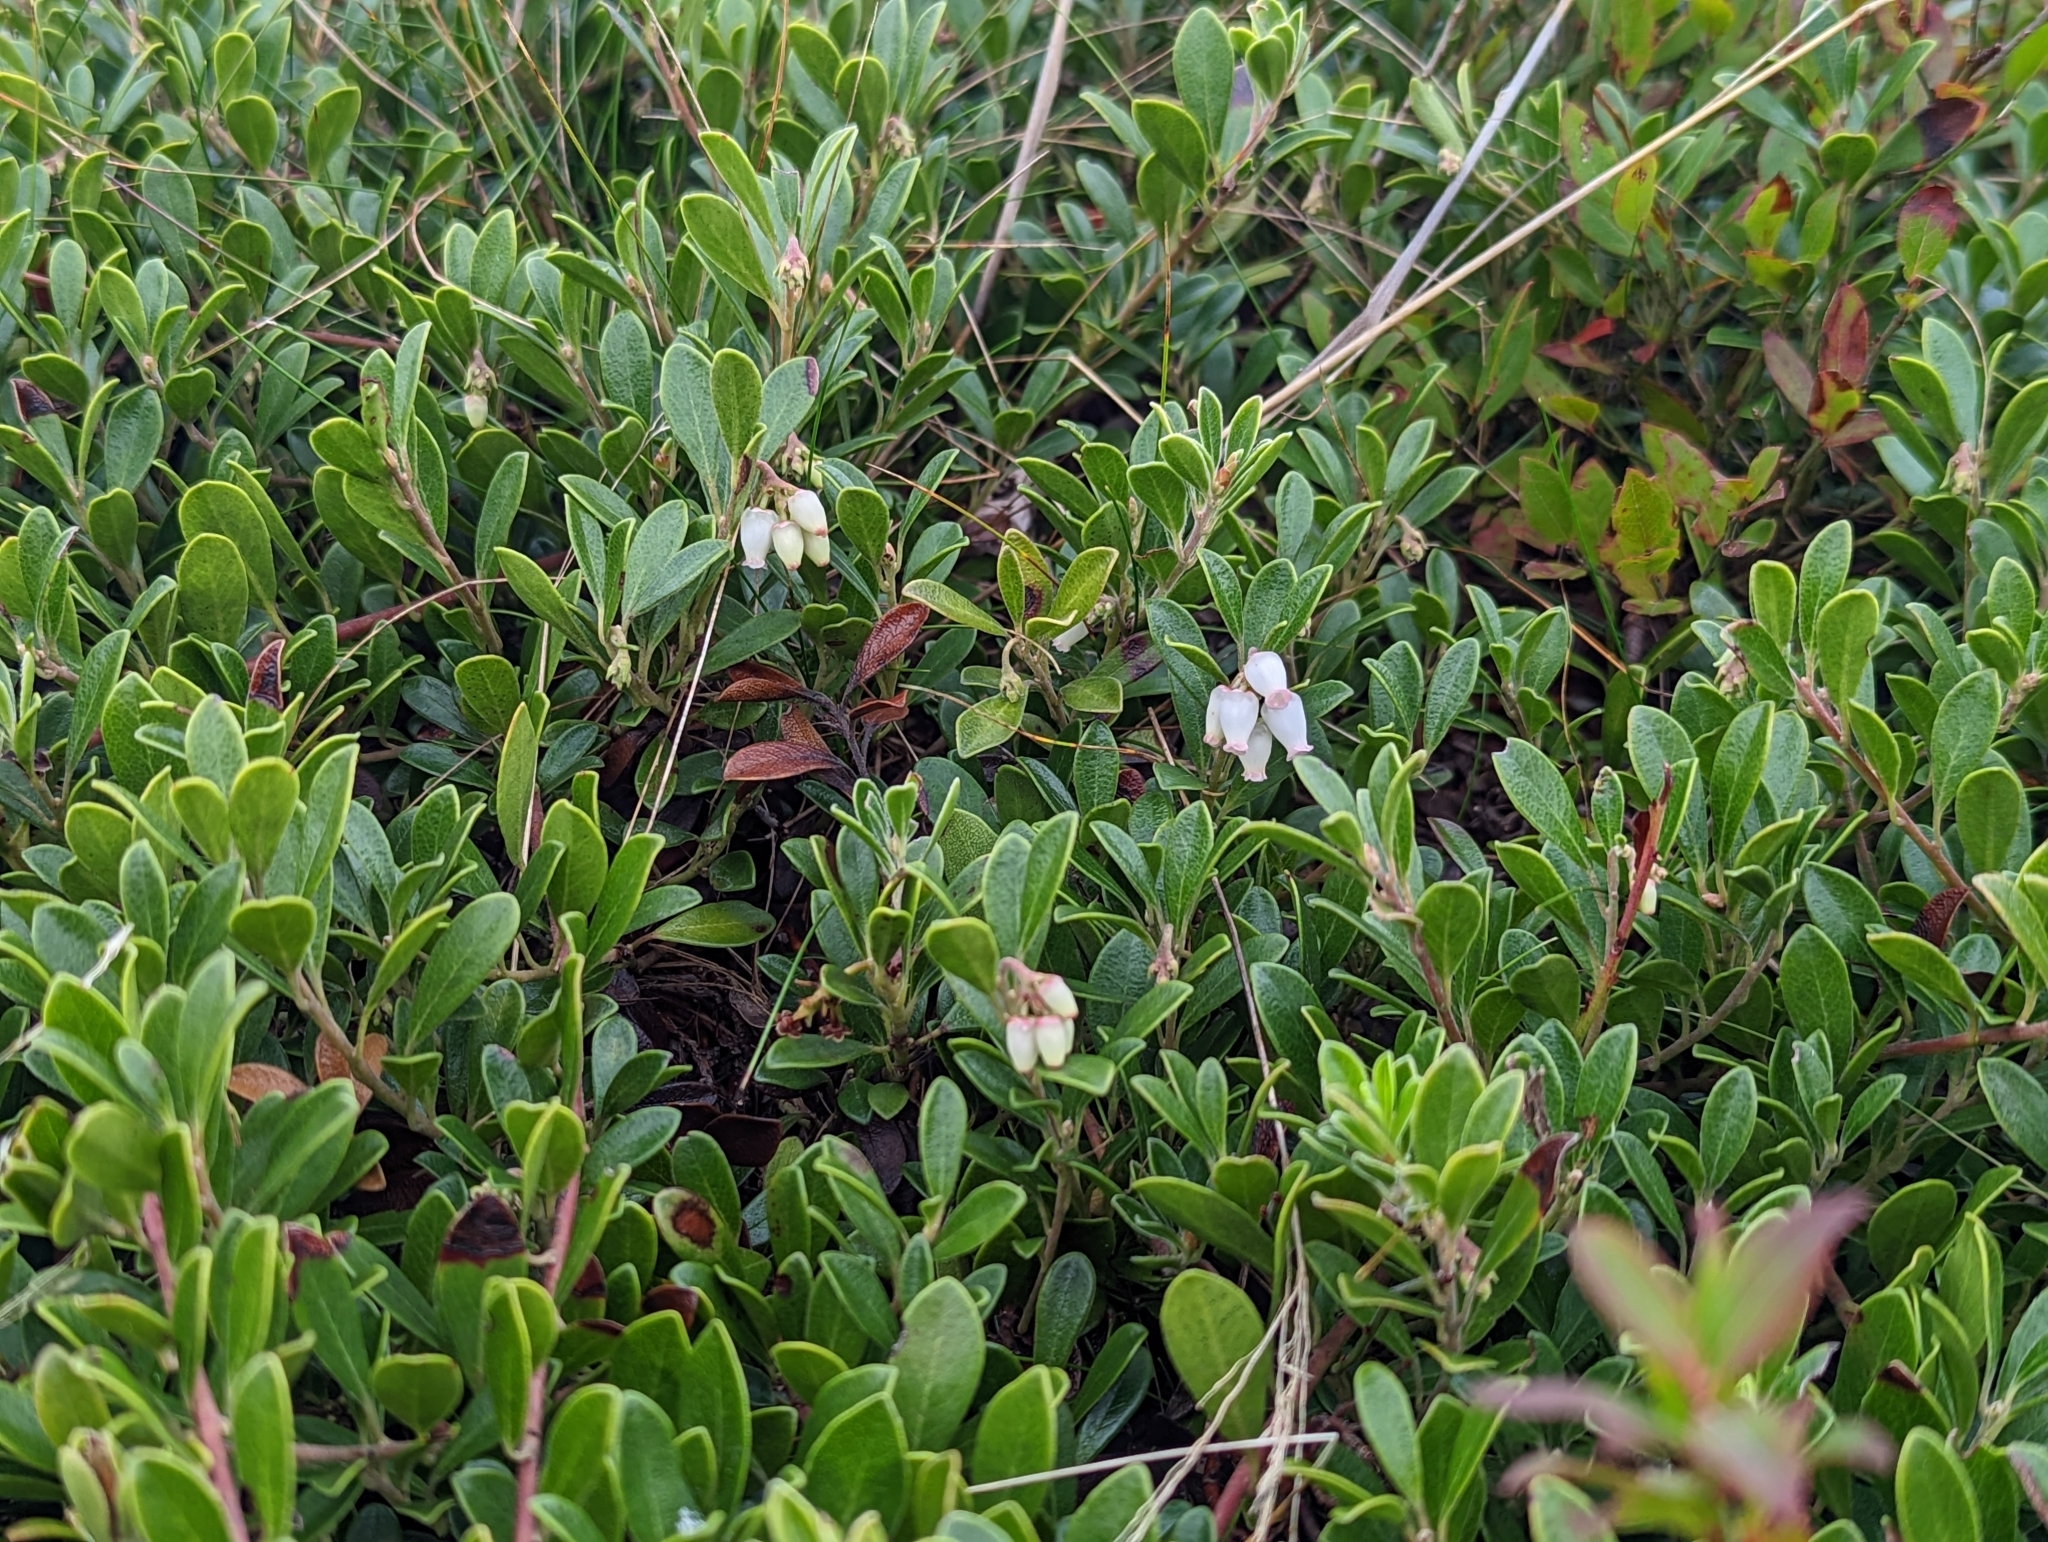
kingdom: Plantae
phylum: Tracheophyta
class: Magnoliopsida
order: Ericales
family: Ericaceae
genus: Arctostaphylos
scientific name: Arctostaphylos uva-ursi
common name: Bearberry
